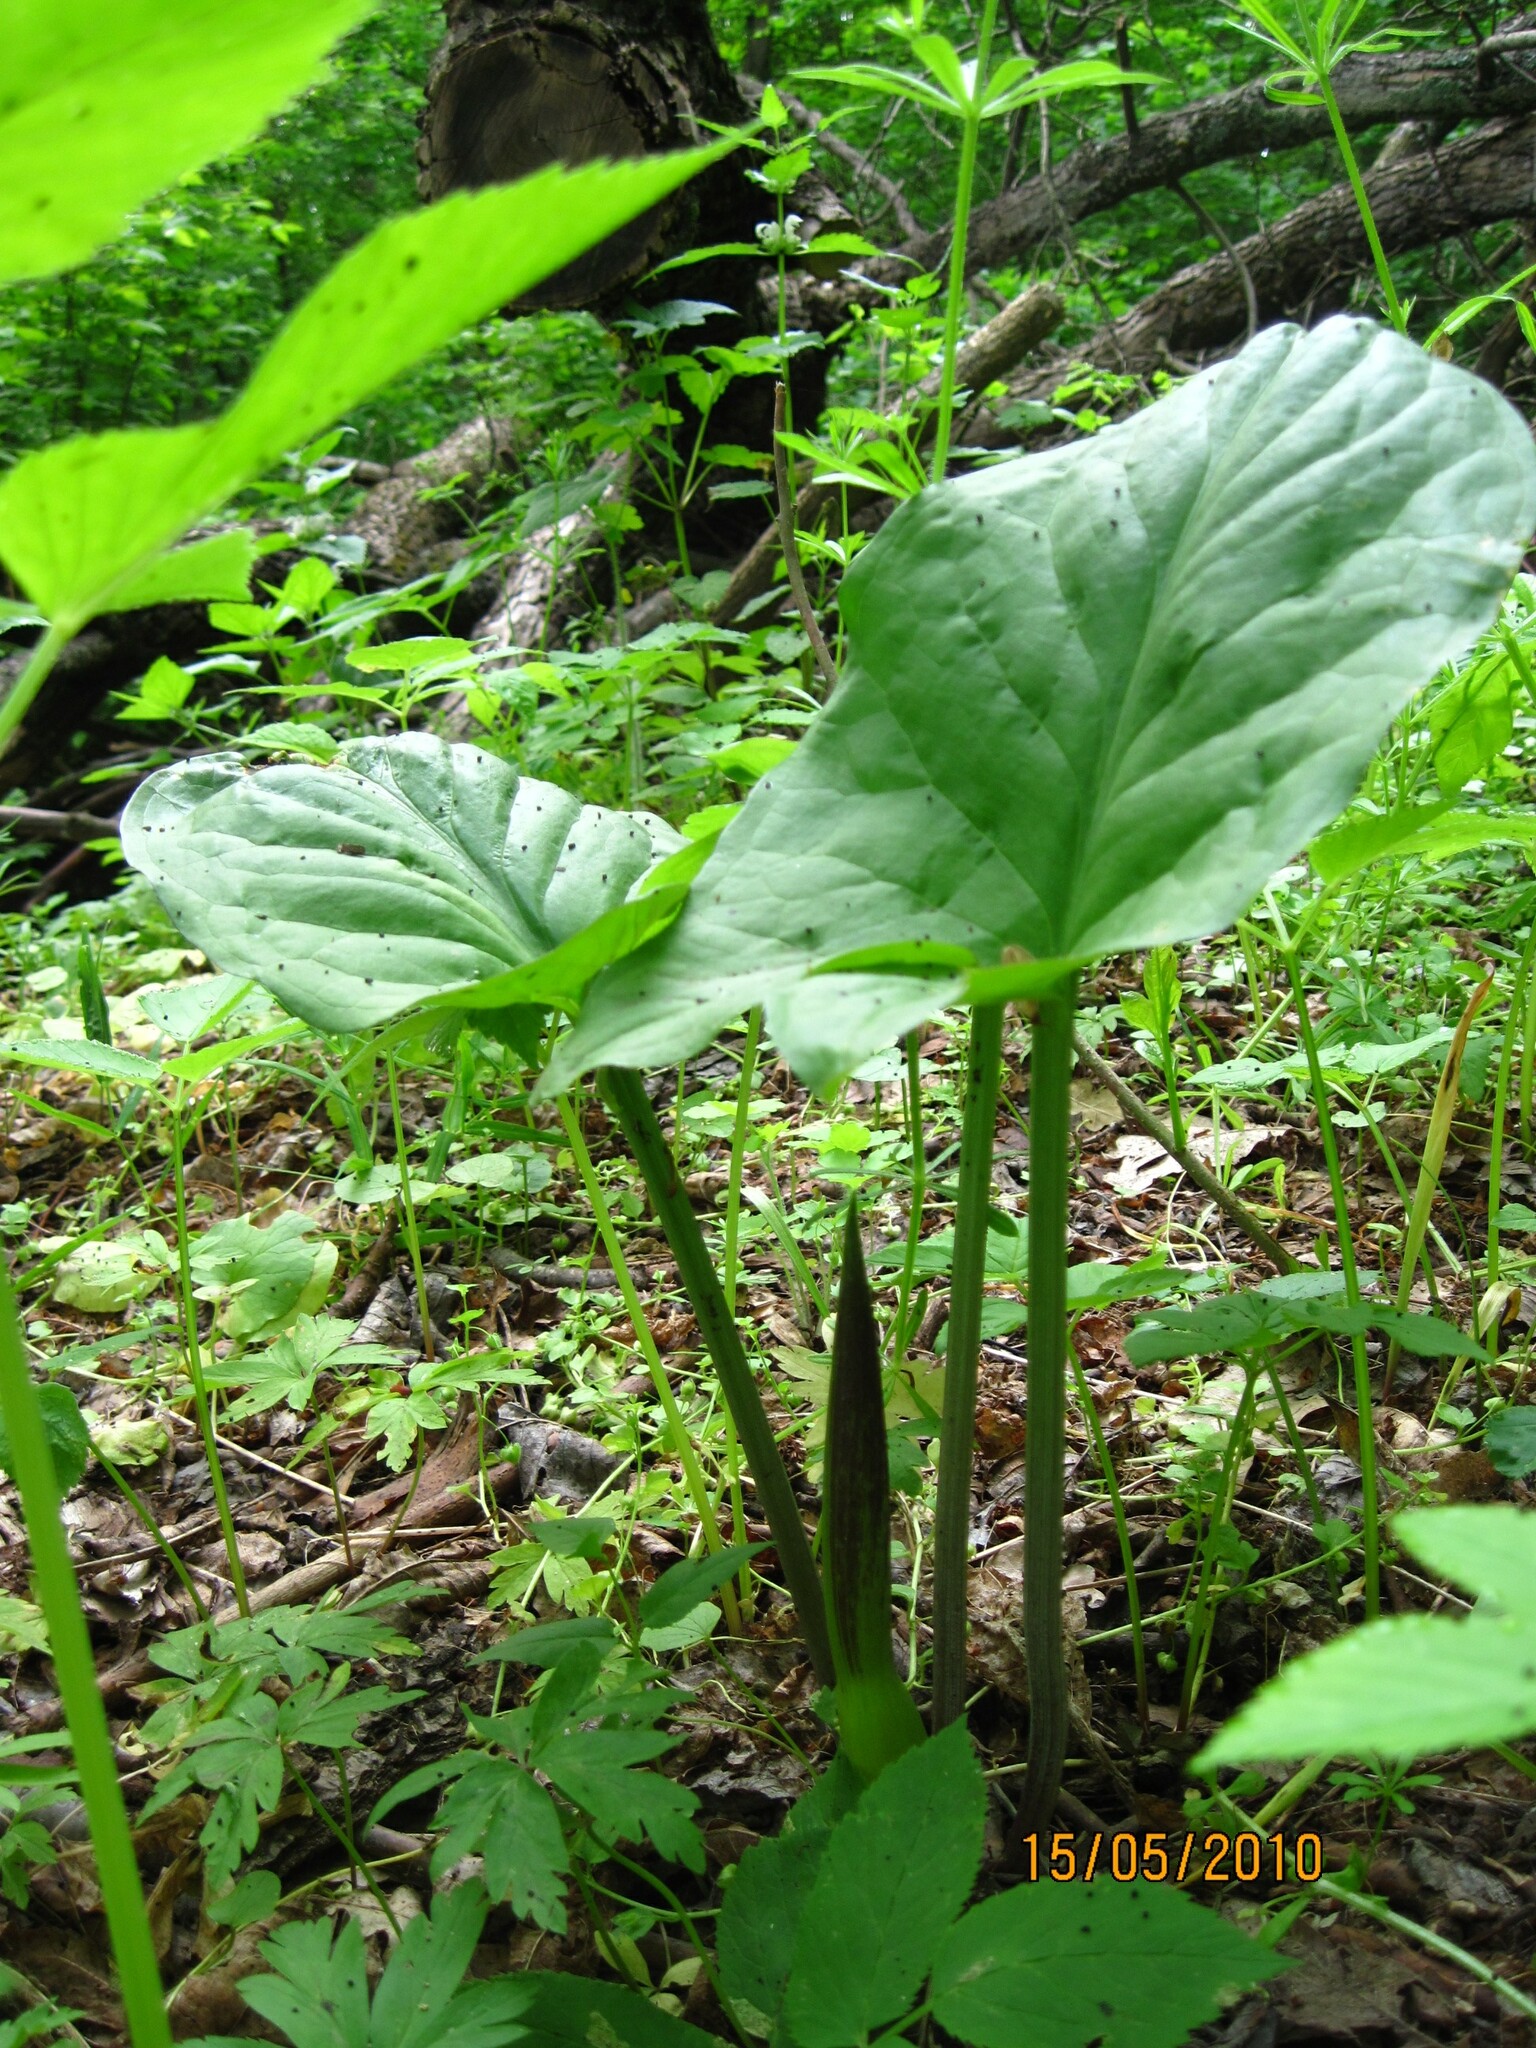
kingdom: Plantae
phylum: Tracheophyta
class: Liliopsida
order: Alismatales
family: Araceae
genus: Arum
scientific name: Arum orientale
